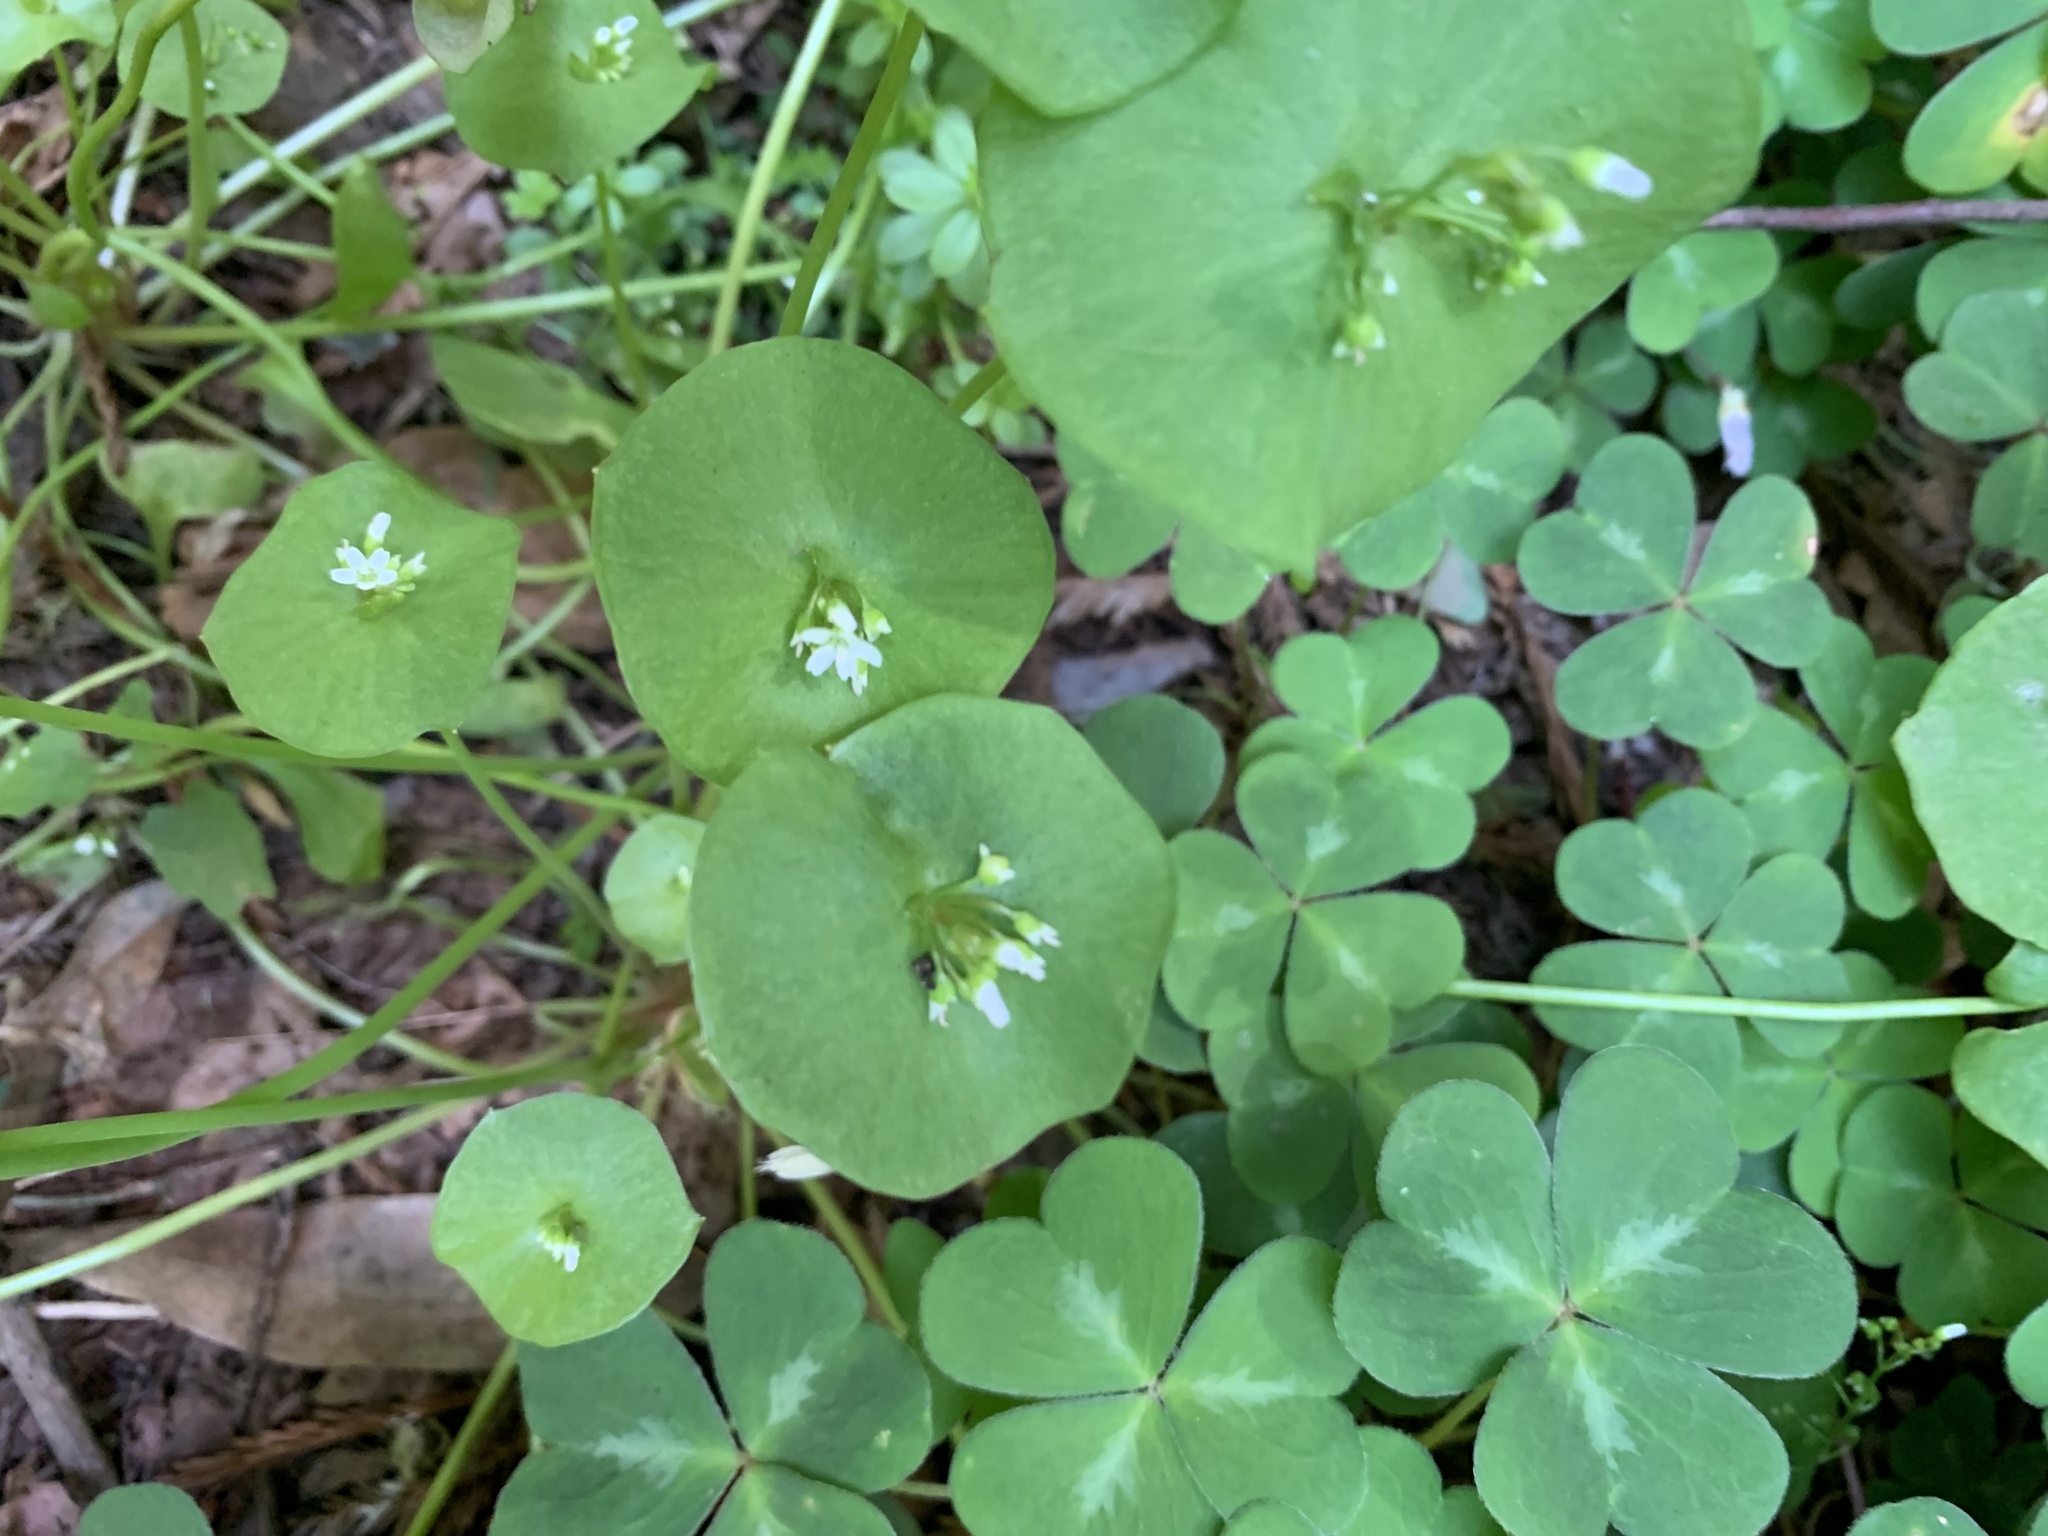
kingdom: Plantae
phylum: Tracheophyta
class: Magnoliopsida
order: Caryophyllales
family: Montiaceae
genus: Claytonia
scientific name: Claytonia perfoliata
